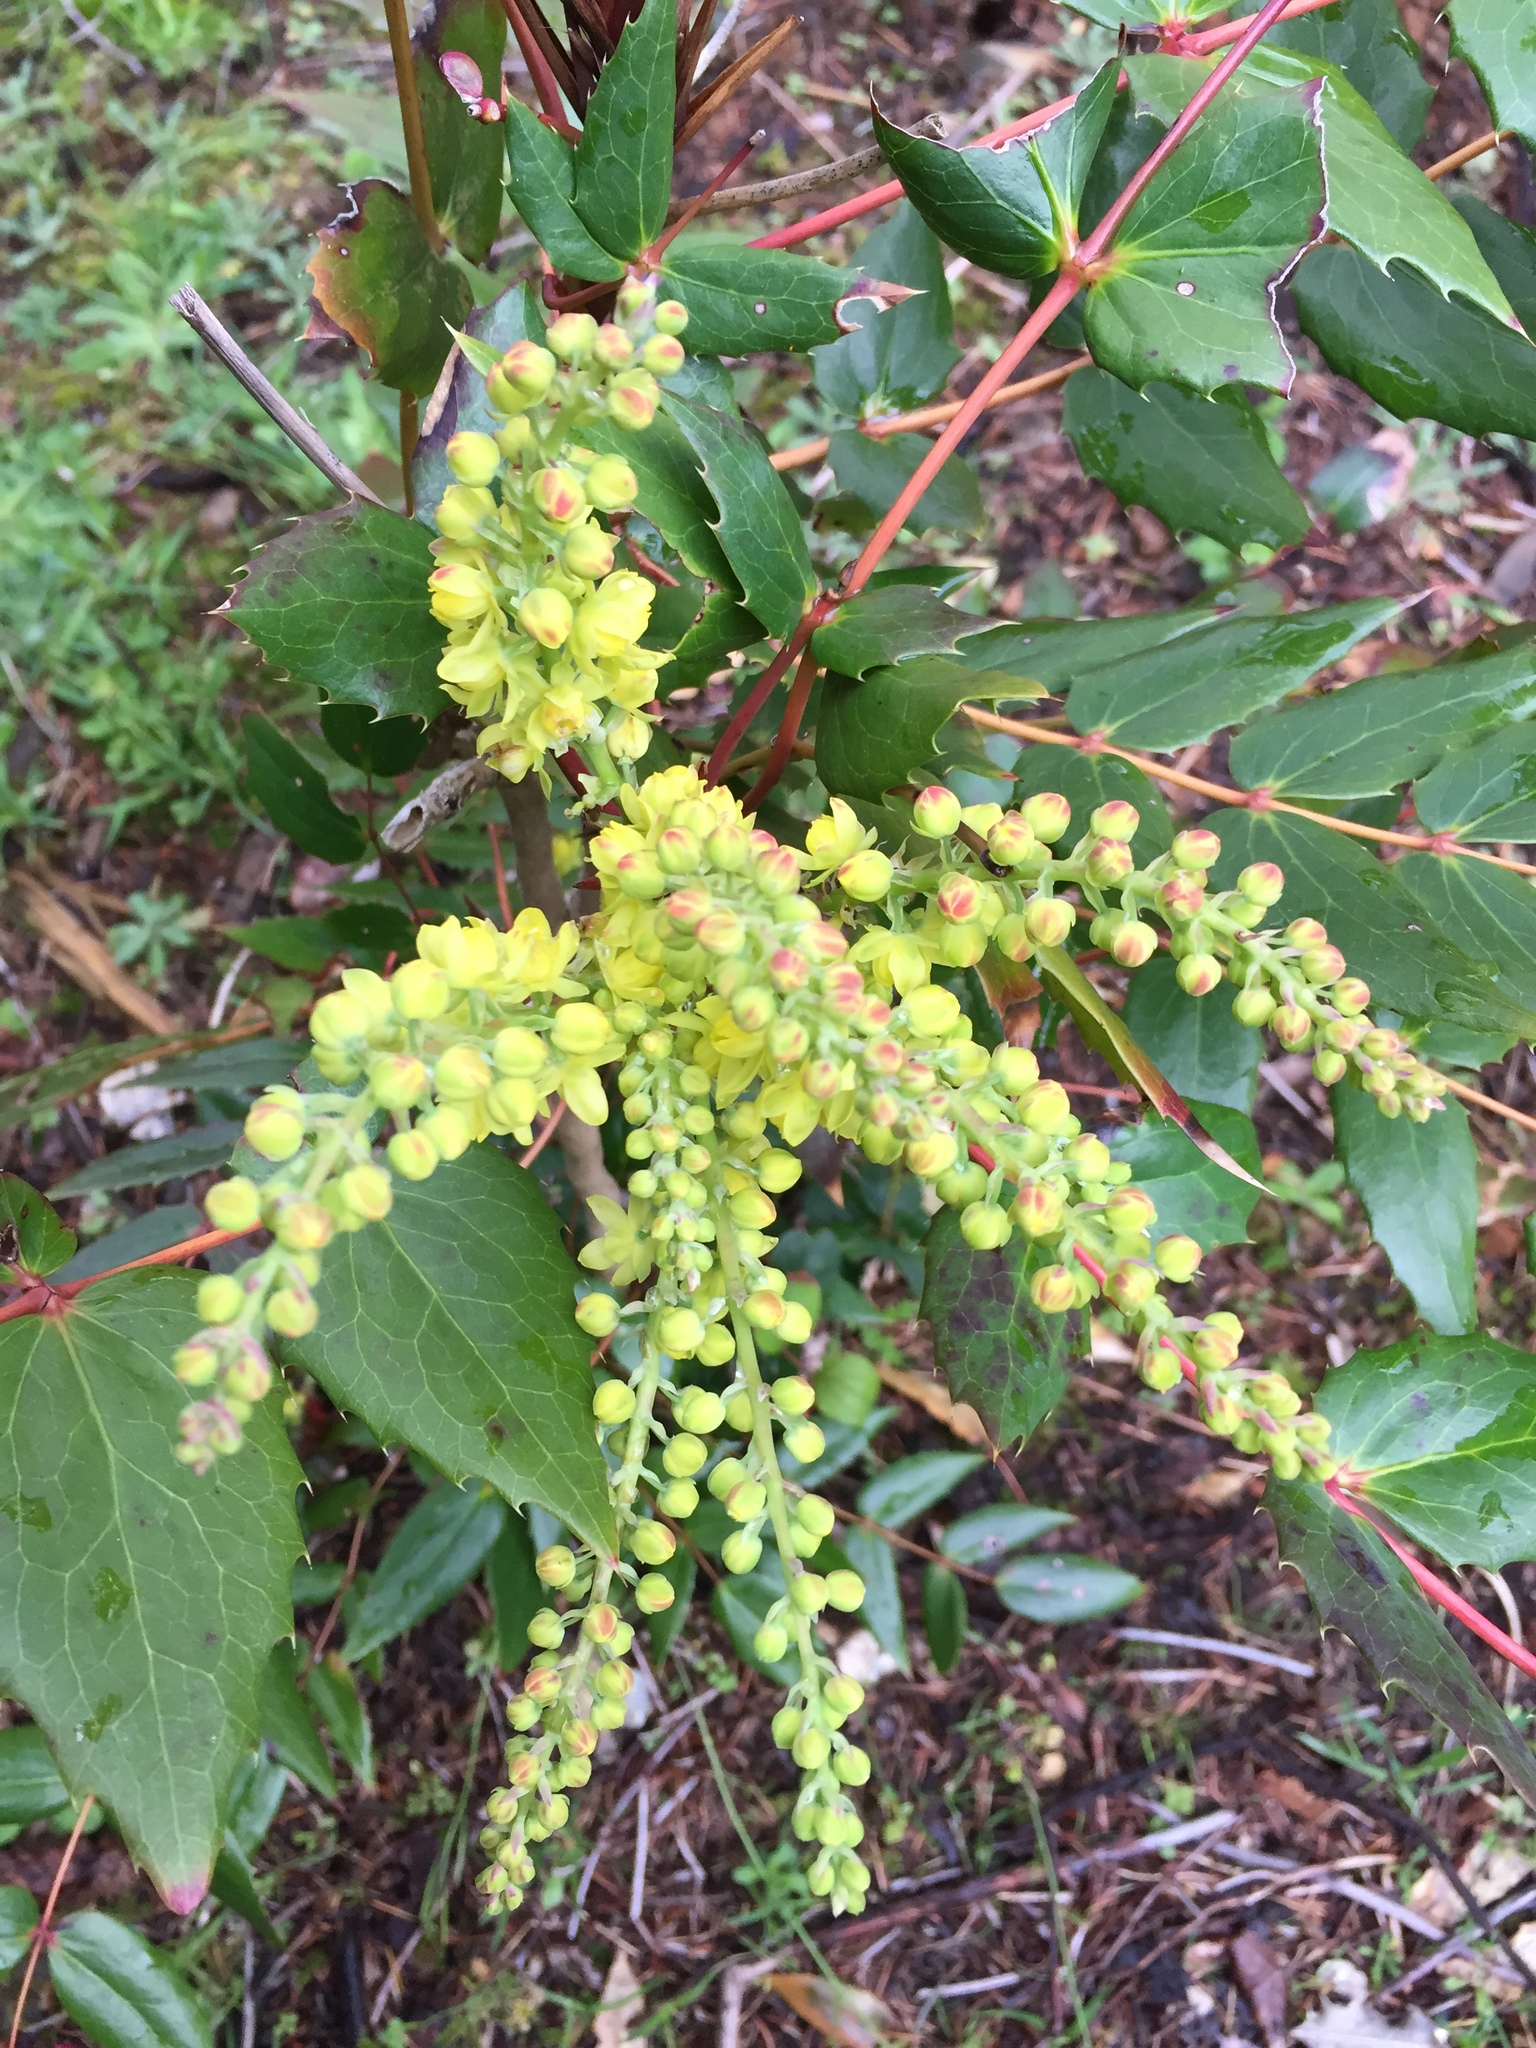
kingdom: Plantae
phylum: Tracheophyta
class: Magnoliopsida
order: Ranunculales
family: Berberidaceae
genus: Mahonia
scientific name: Mahonia nervosa
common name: Cascade oregon-grape
